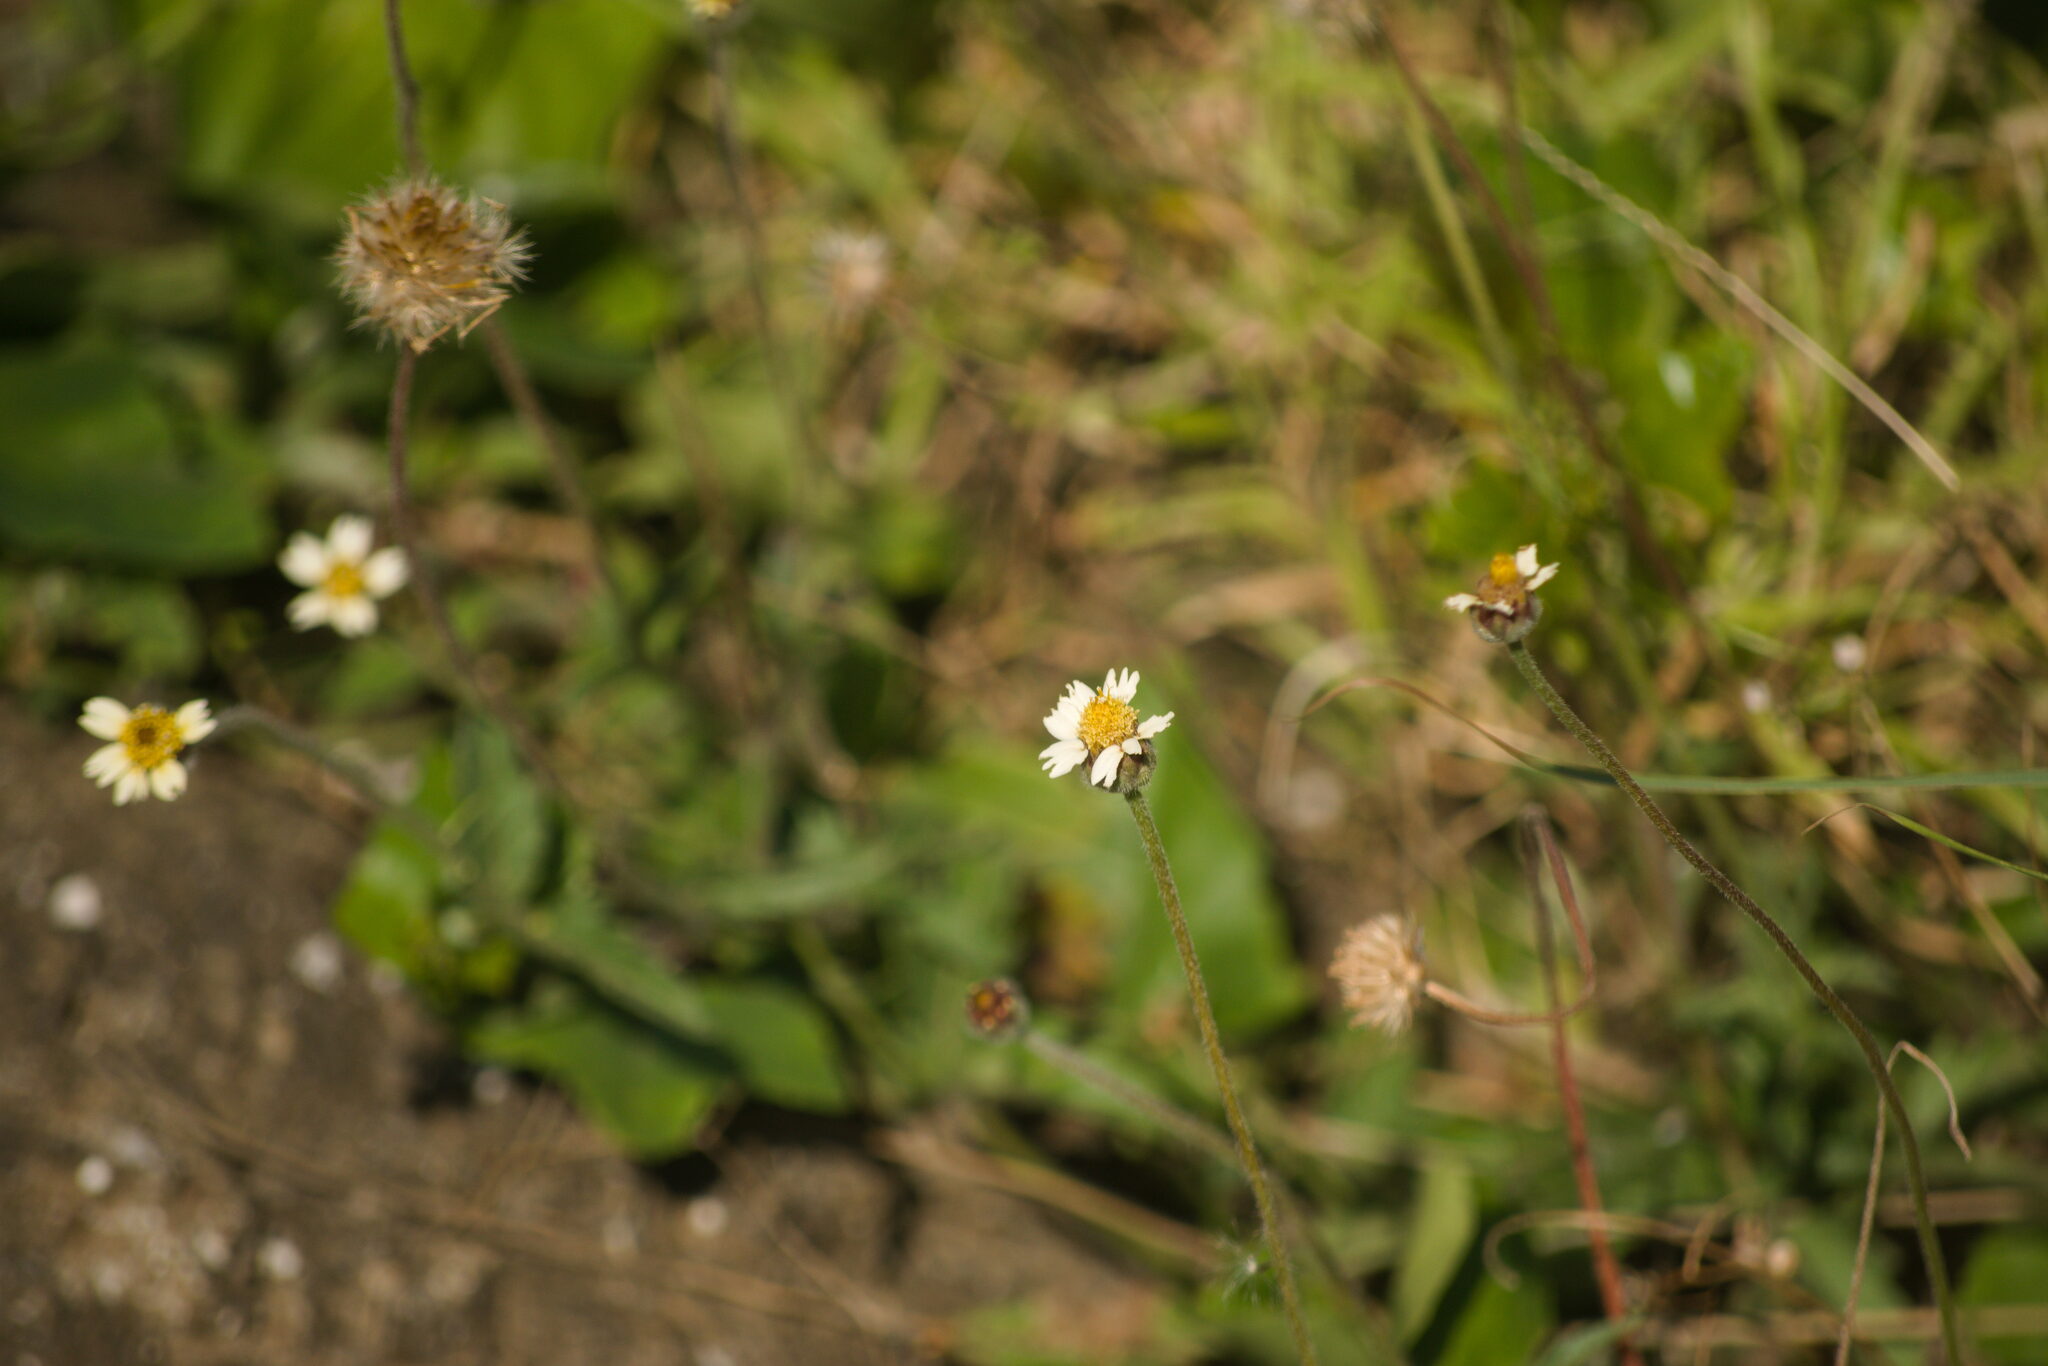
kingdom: Plantae
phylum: Tracheophyta
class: Magnoliopsida
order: Asterales
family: Asteraceae
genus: Tridax
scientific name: Tridax procumbens
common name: Coatbuttons
